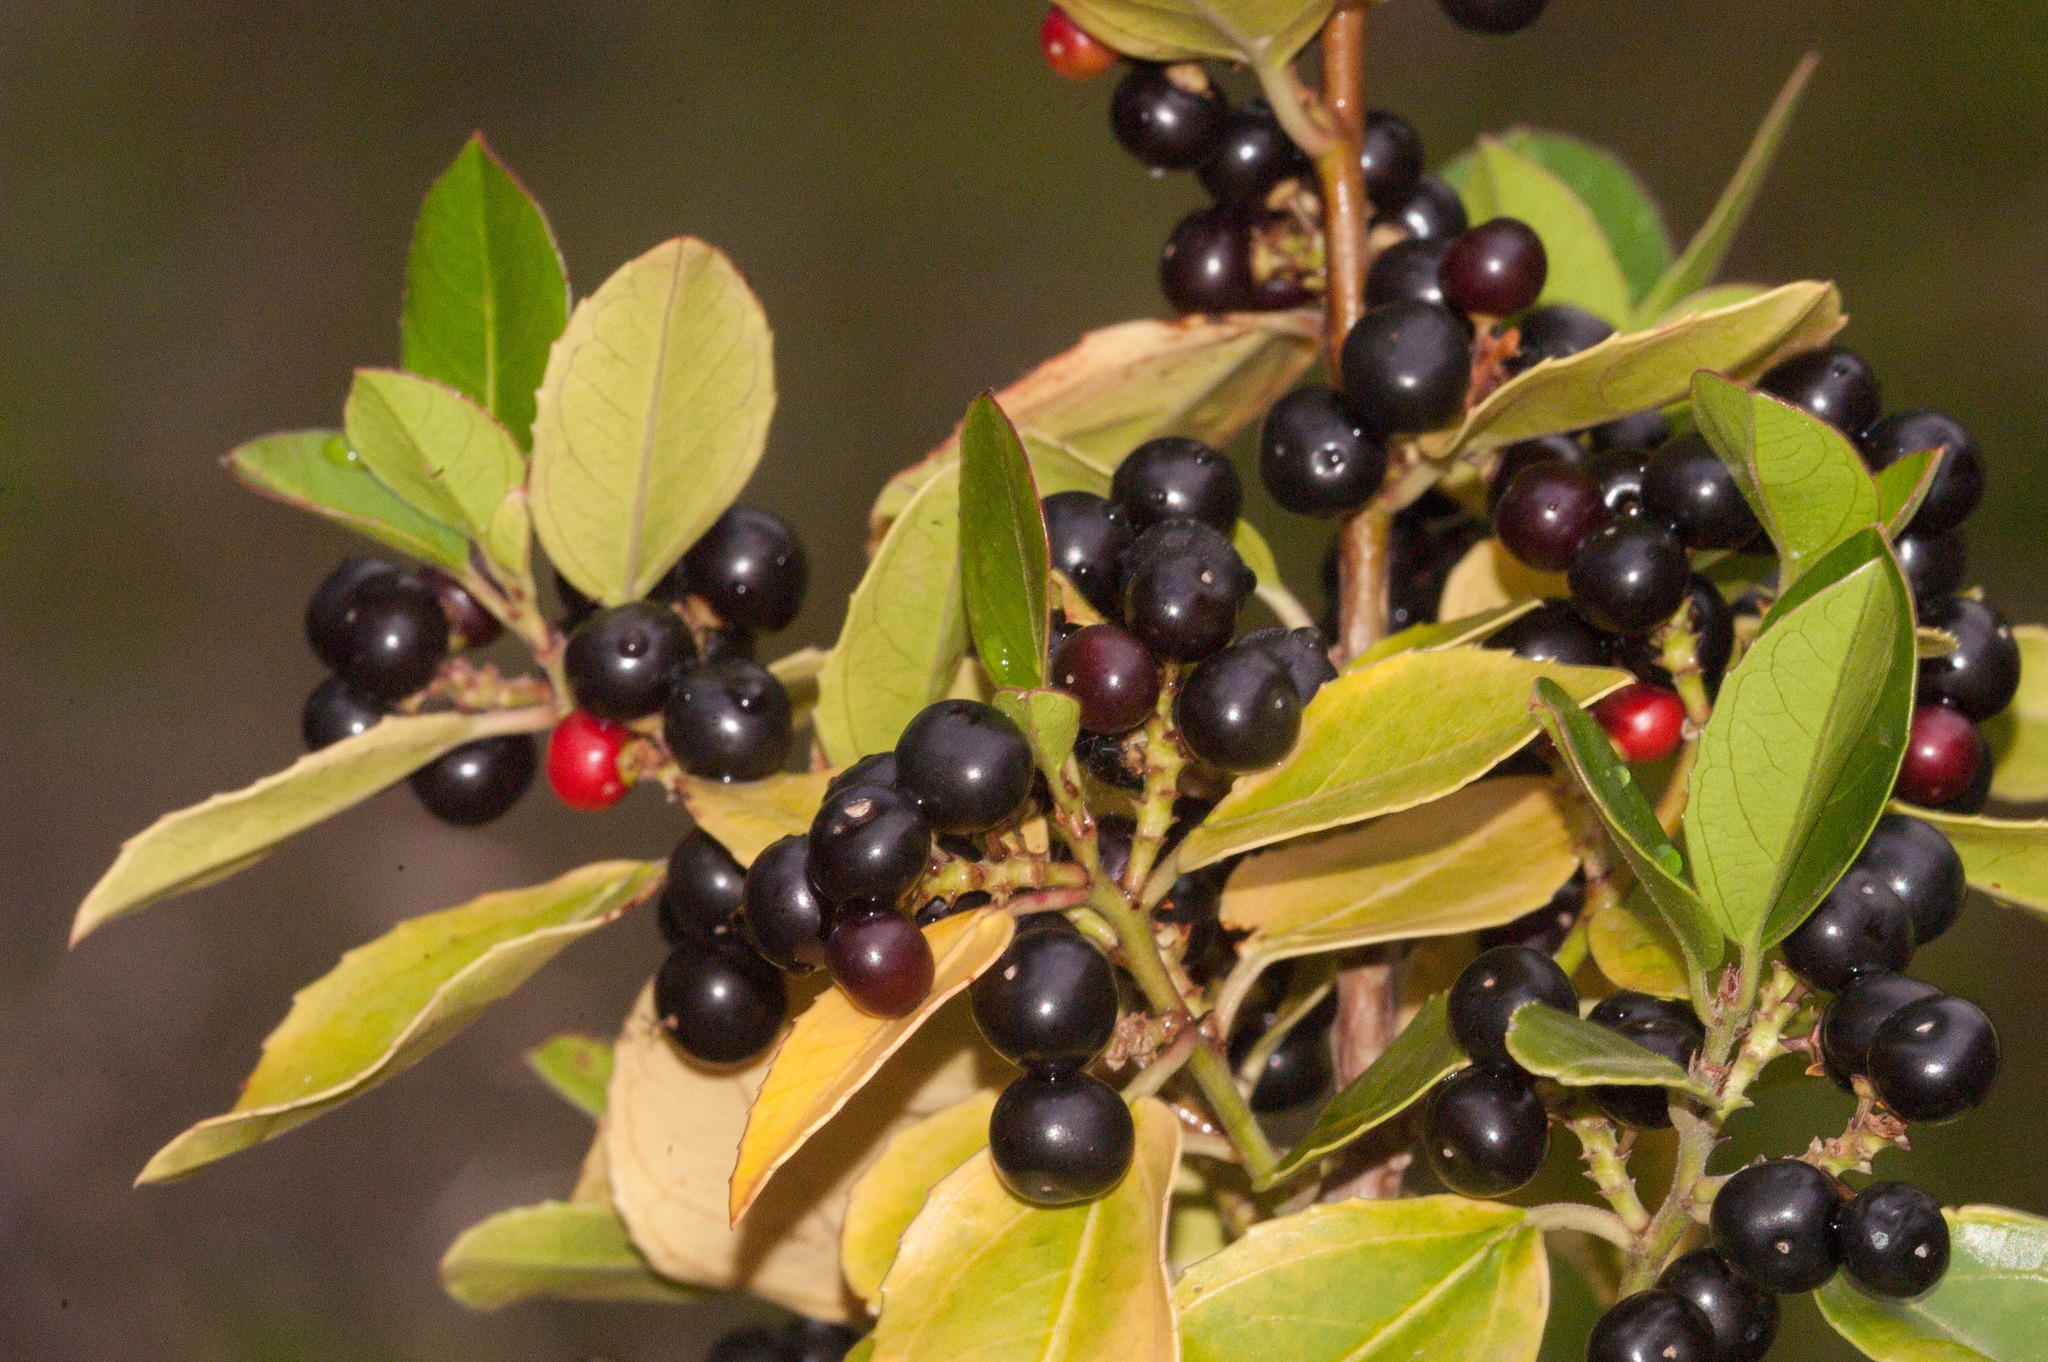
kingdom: Plantae
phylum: Tracheophyta
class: Magnoliopsida
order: Rosales
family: Rhamnaceae
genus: Rhamnus
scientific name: Rhamnus alaternus
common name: Mediterranean buckthorn
